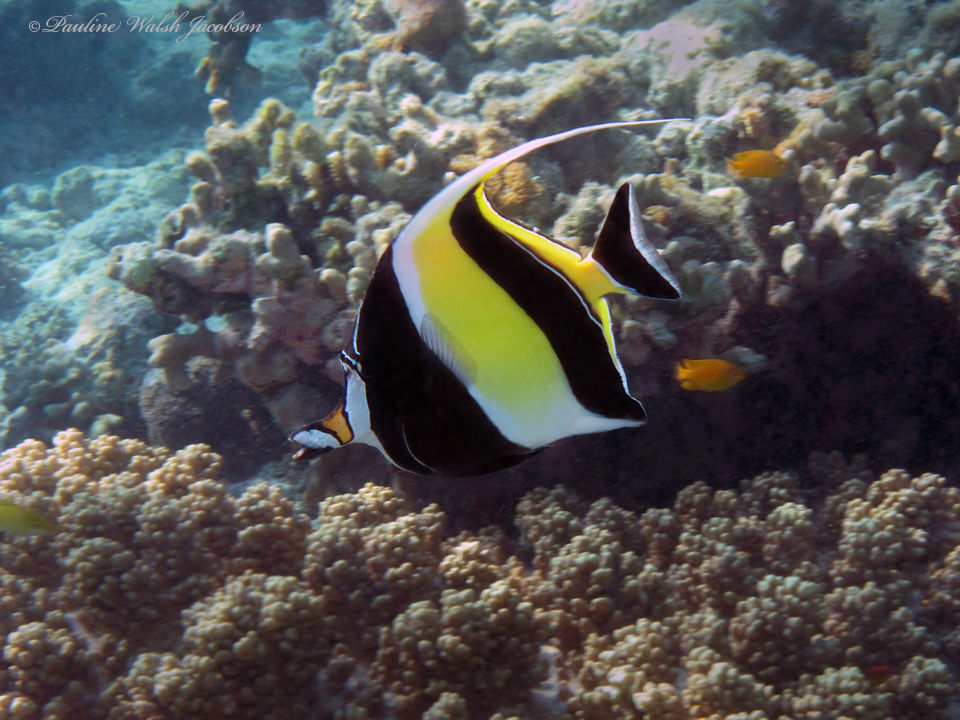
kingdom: Animalia
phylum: Chordata
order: Perciformes
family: Zanclidae
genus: Zanclus
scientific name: Zanclus cornutus
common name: Moorish idol
